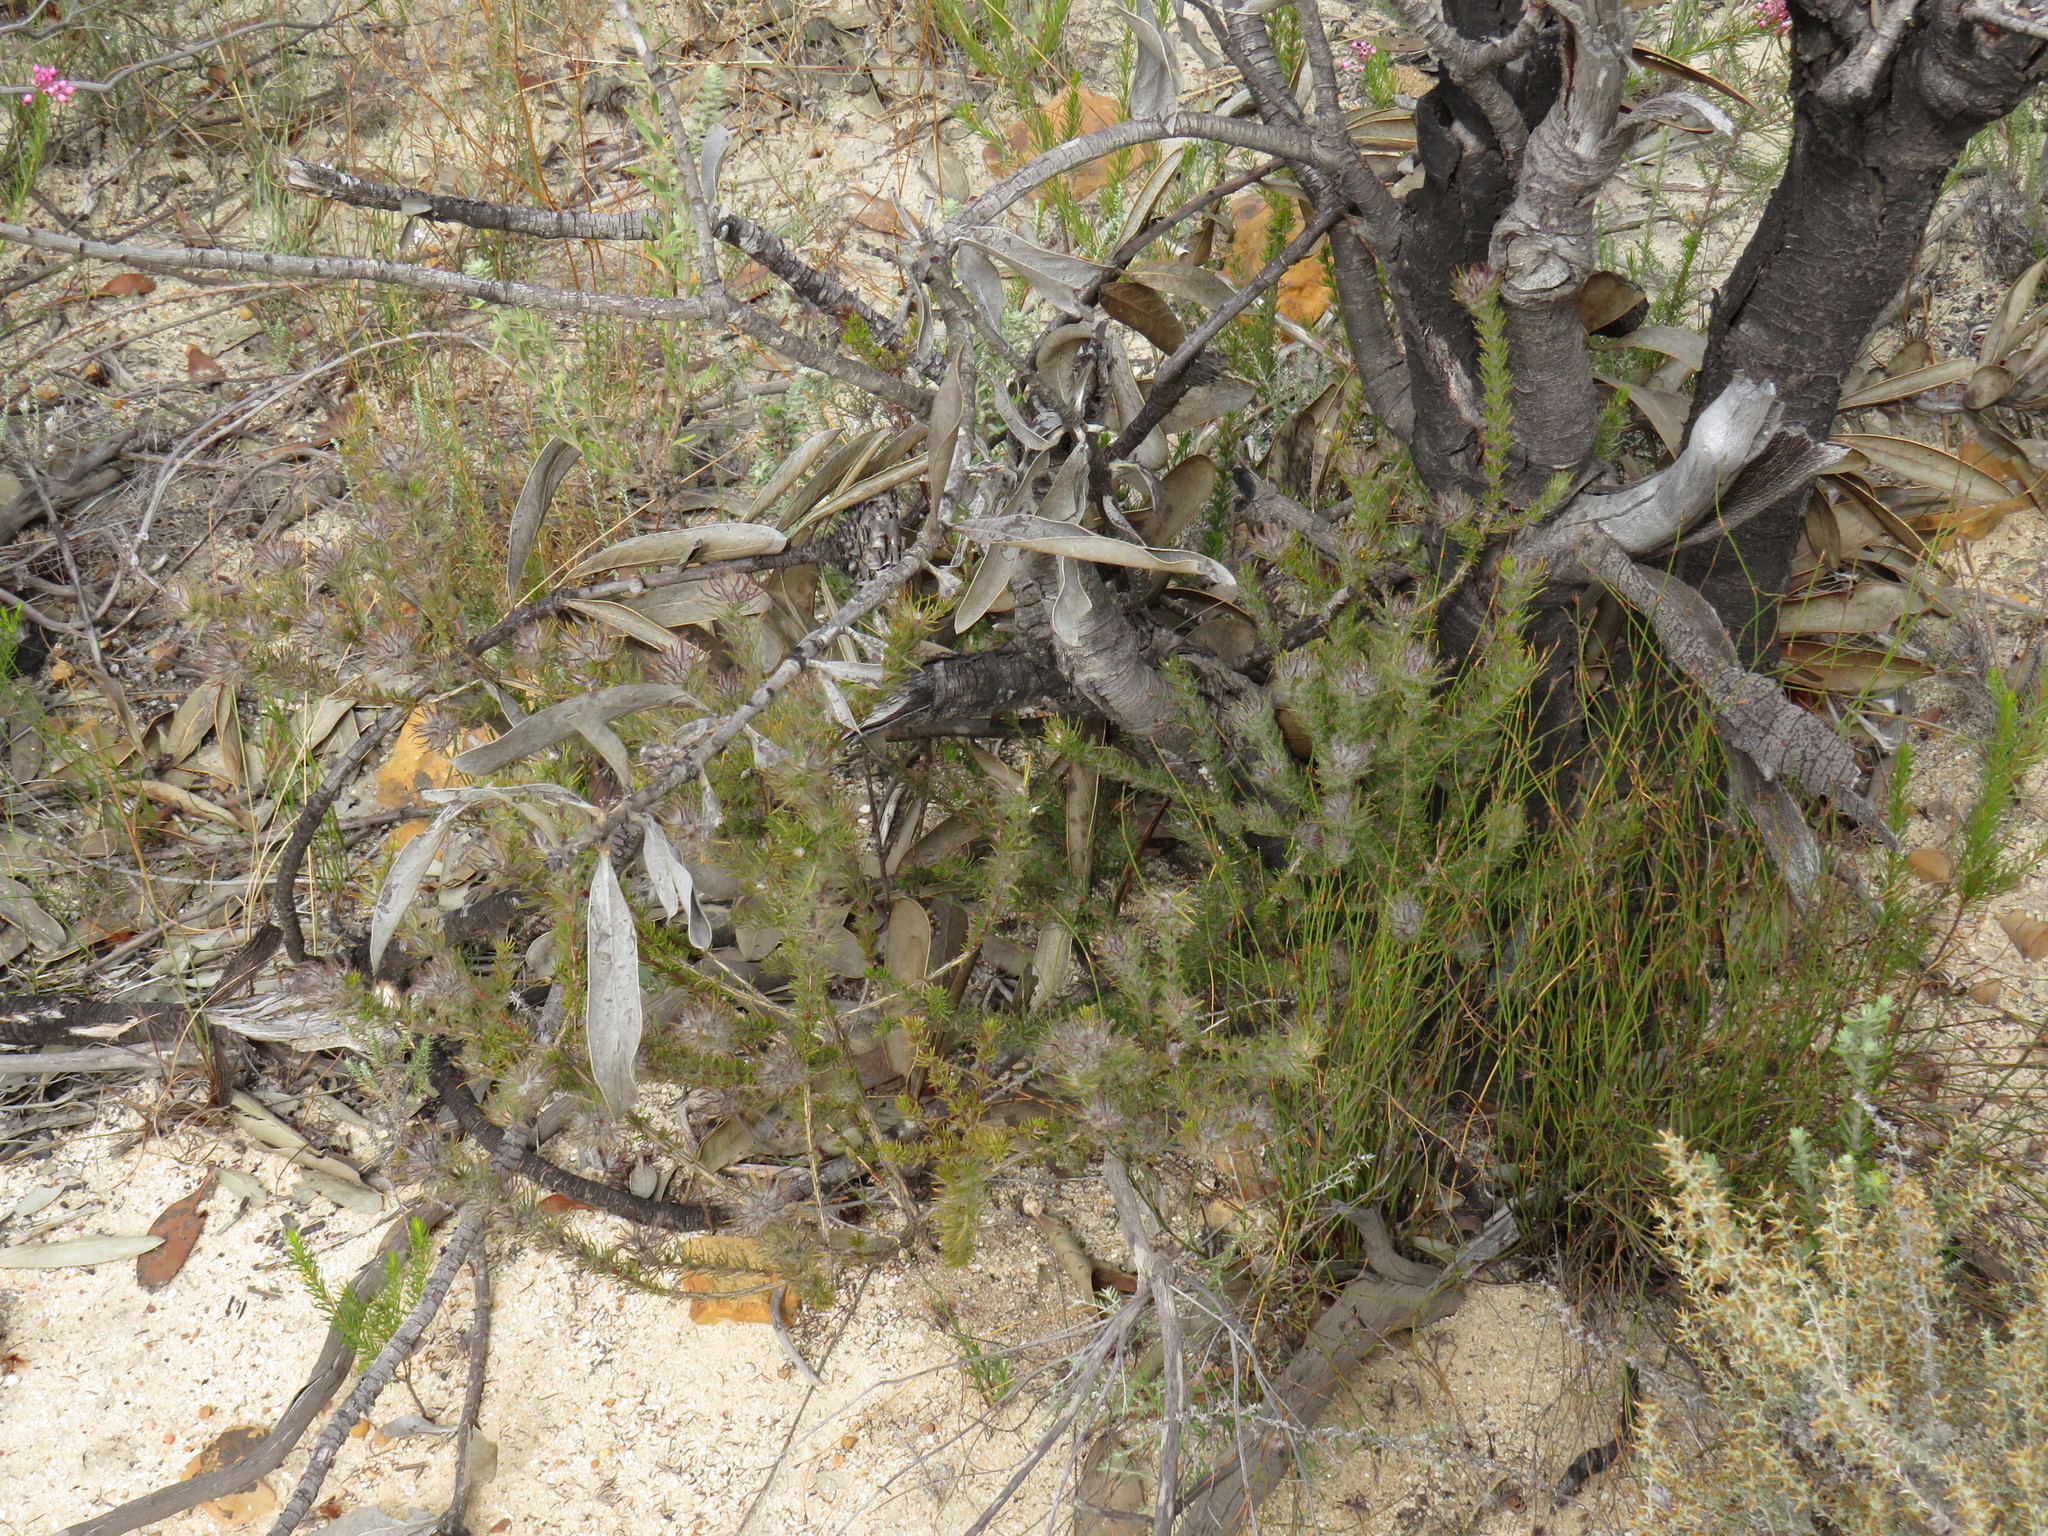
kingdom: Plantae
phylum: Tracheophyta
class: Magnoliopsida
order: Fabales
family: Fabaceae
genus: Aspalathus
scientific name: Aspalathus ciliaris
